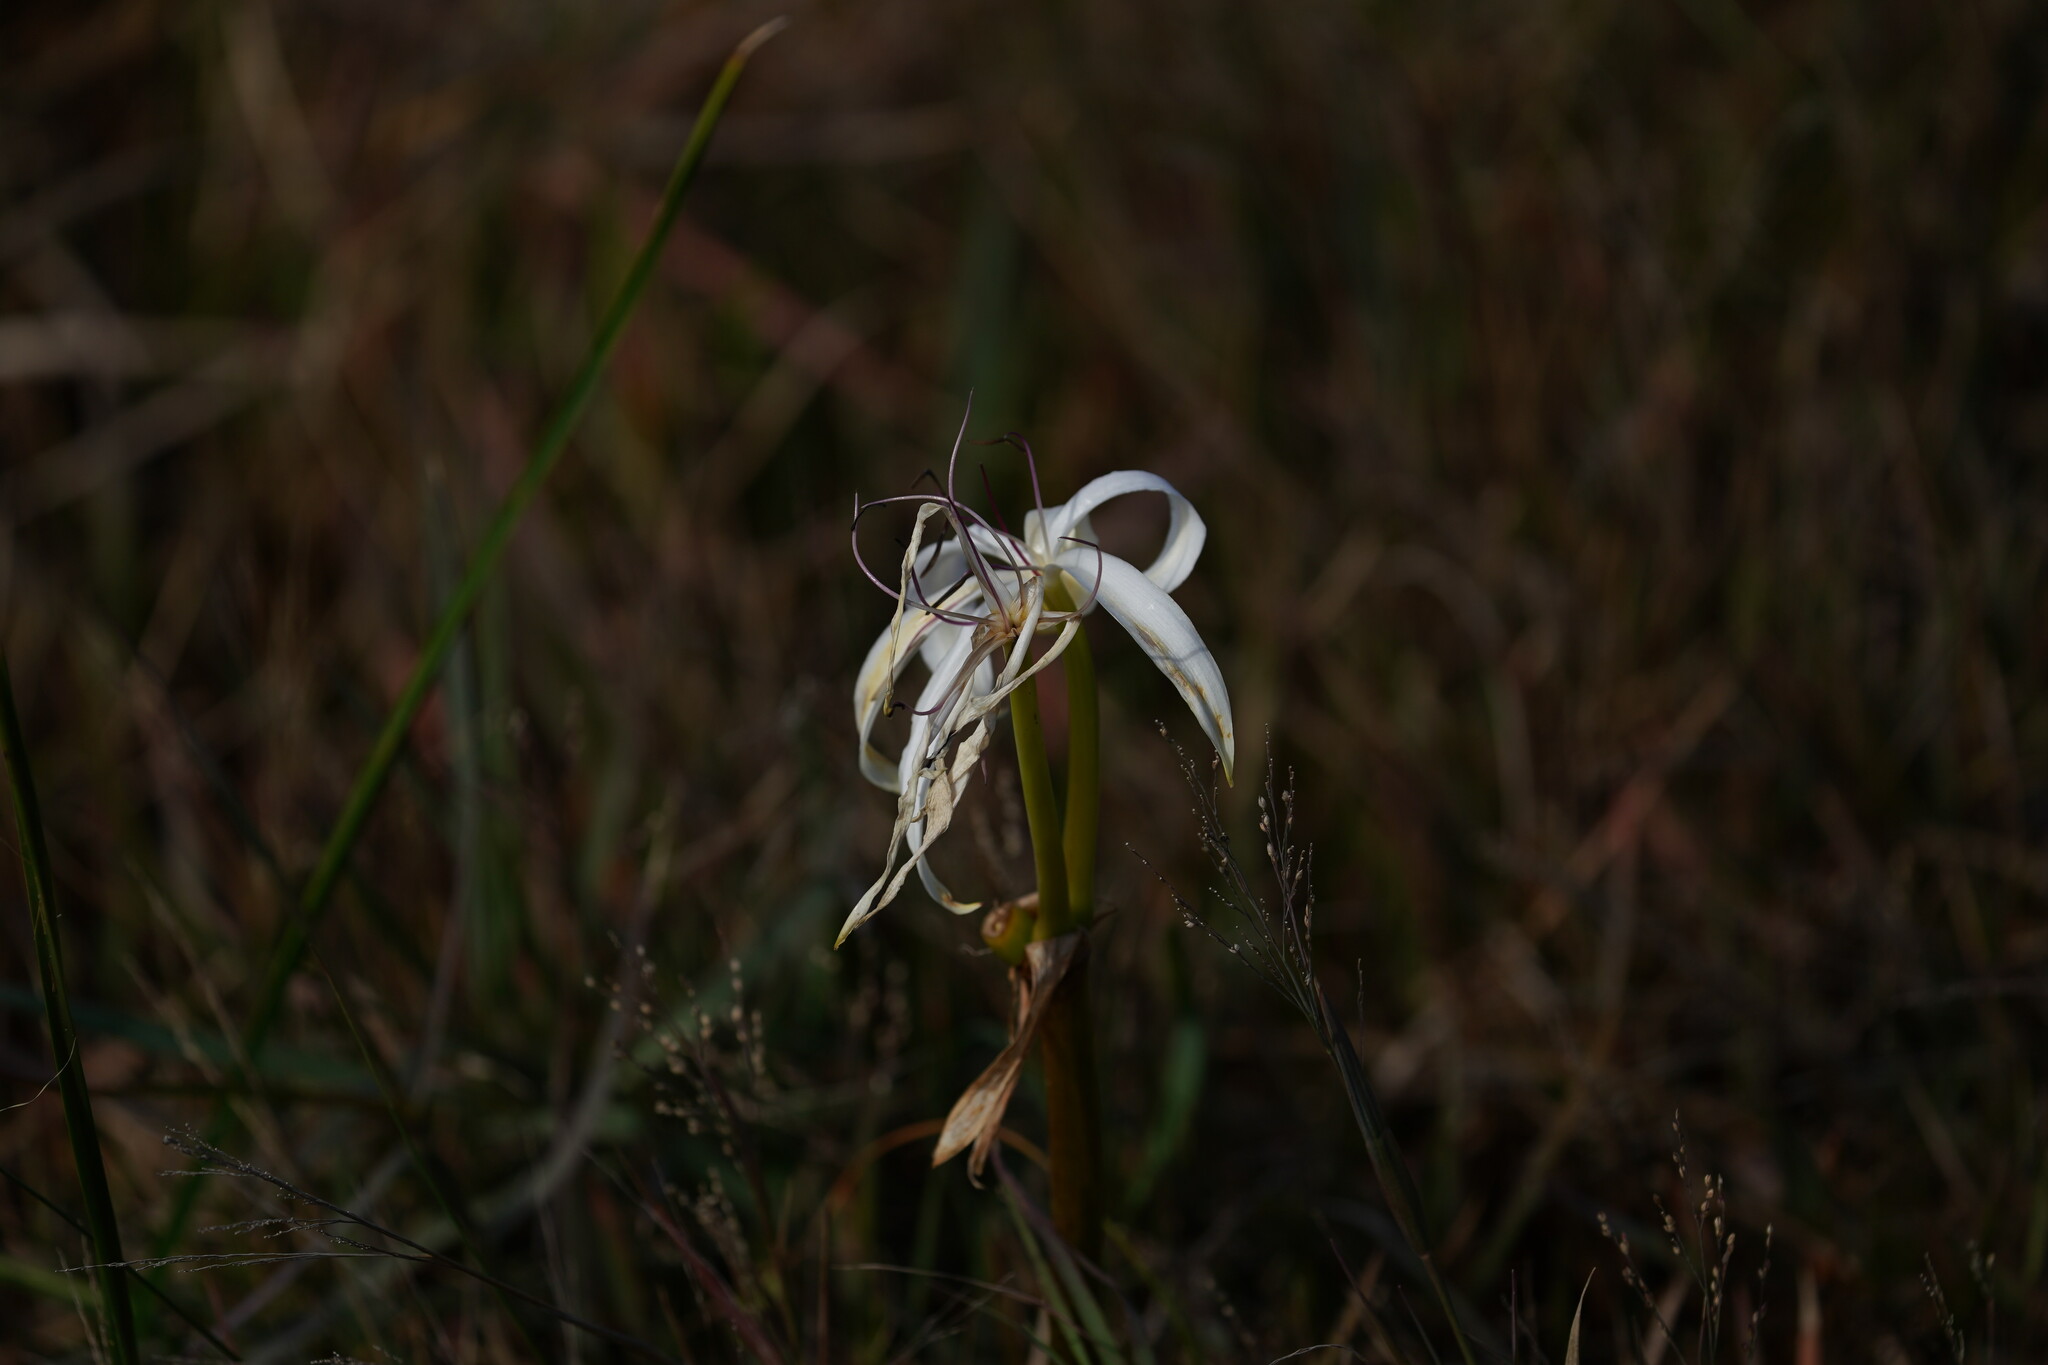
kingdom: Plantae
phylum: Tracheophyta
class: Liliopsida
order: Asparagales
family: Amaryllidaceae
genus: Crinum
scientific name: Crinum americanum
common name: Florida swamp-lily
